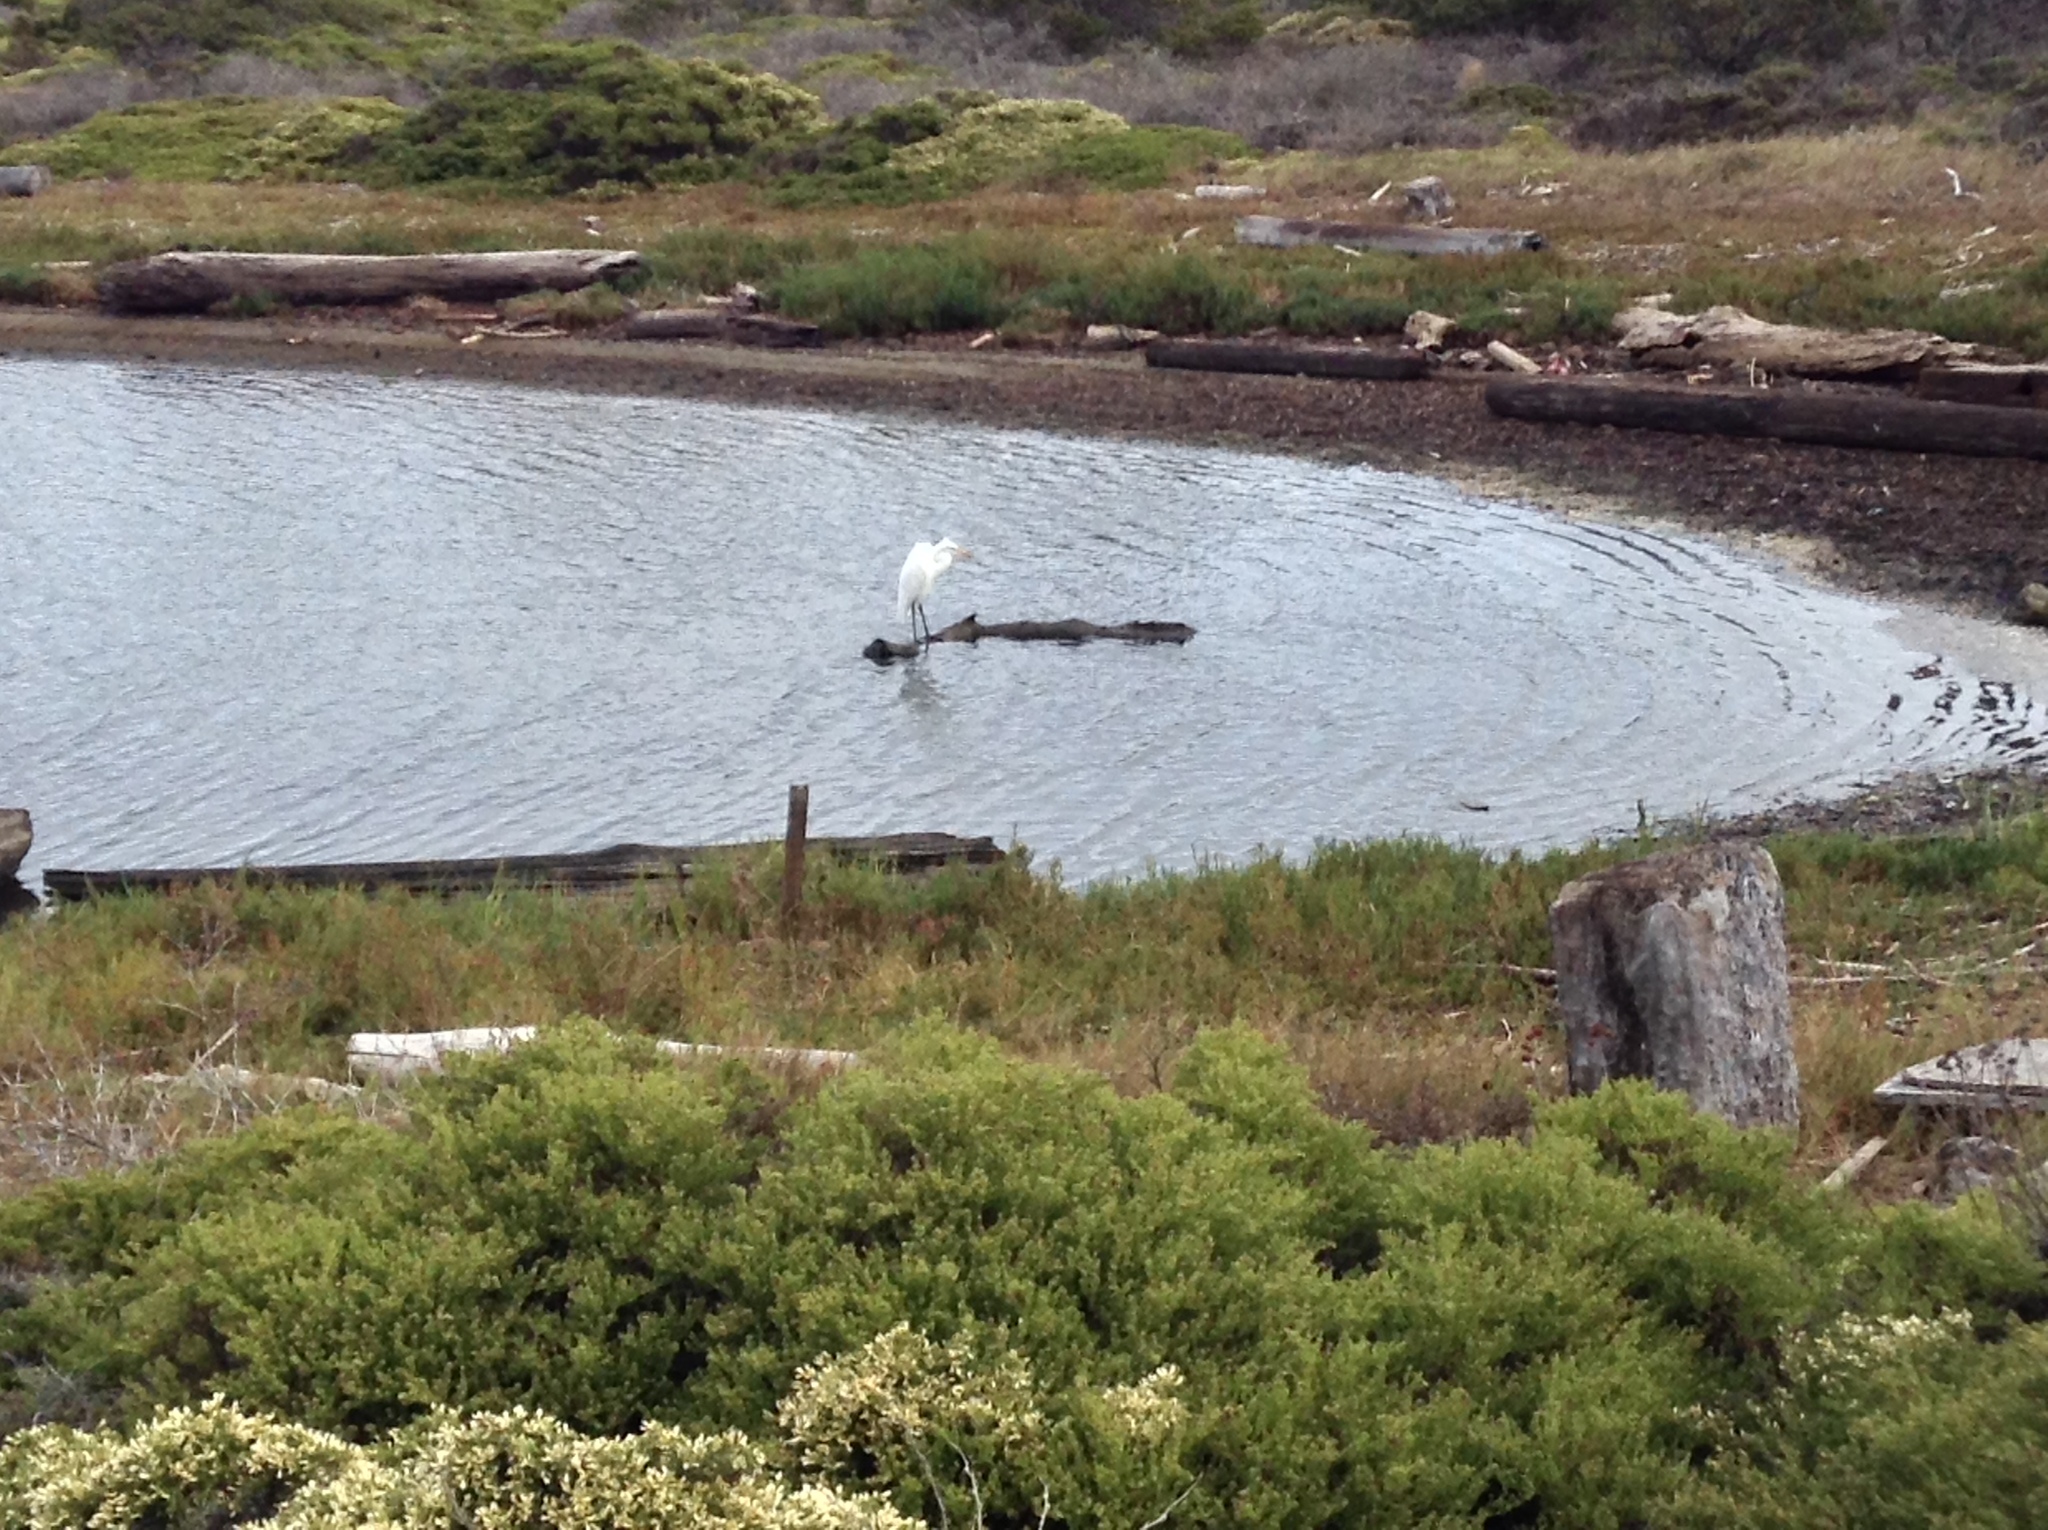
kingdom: Animalia
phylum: Chordata
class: Aves
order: Pelecaniformes
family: Ardeidae
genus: Ardea
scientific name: Ardea alba
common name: Great egret
